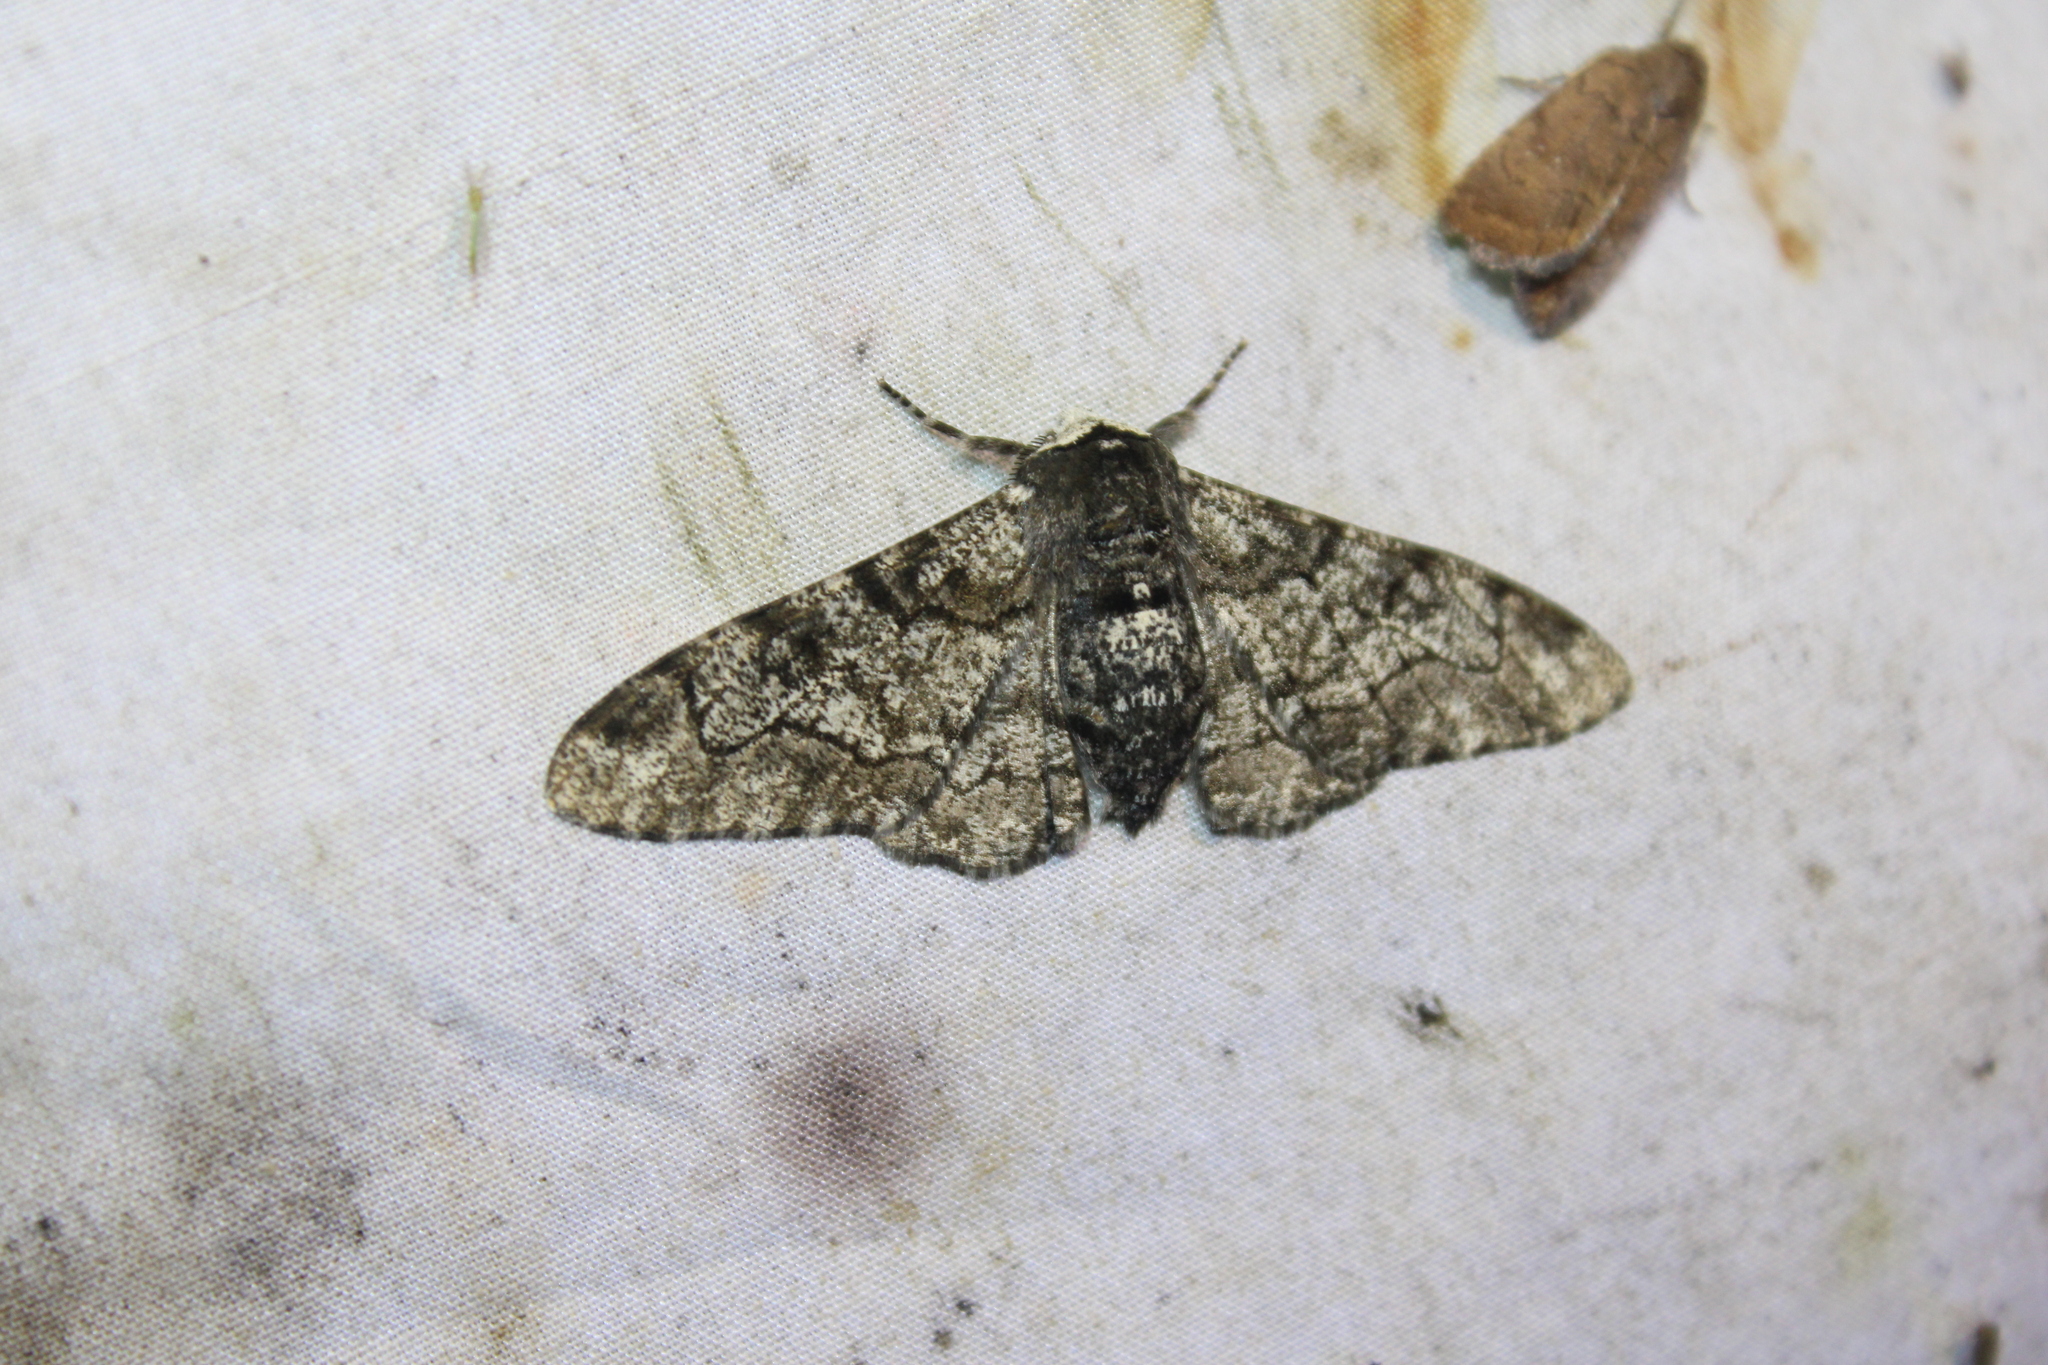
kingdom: Animalia
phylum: Arthropoda
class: Insecta
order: Lepidoptera
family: Geometridae
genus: Biston
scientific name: Biston betularia
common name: Peppered moth
